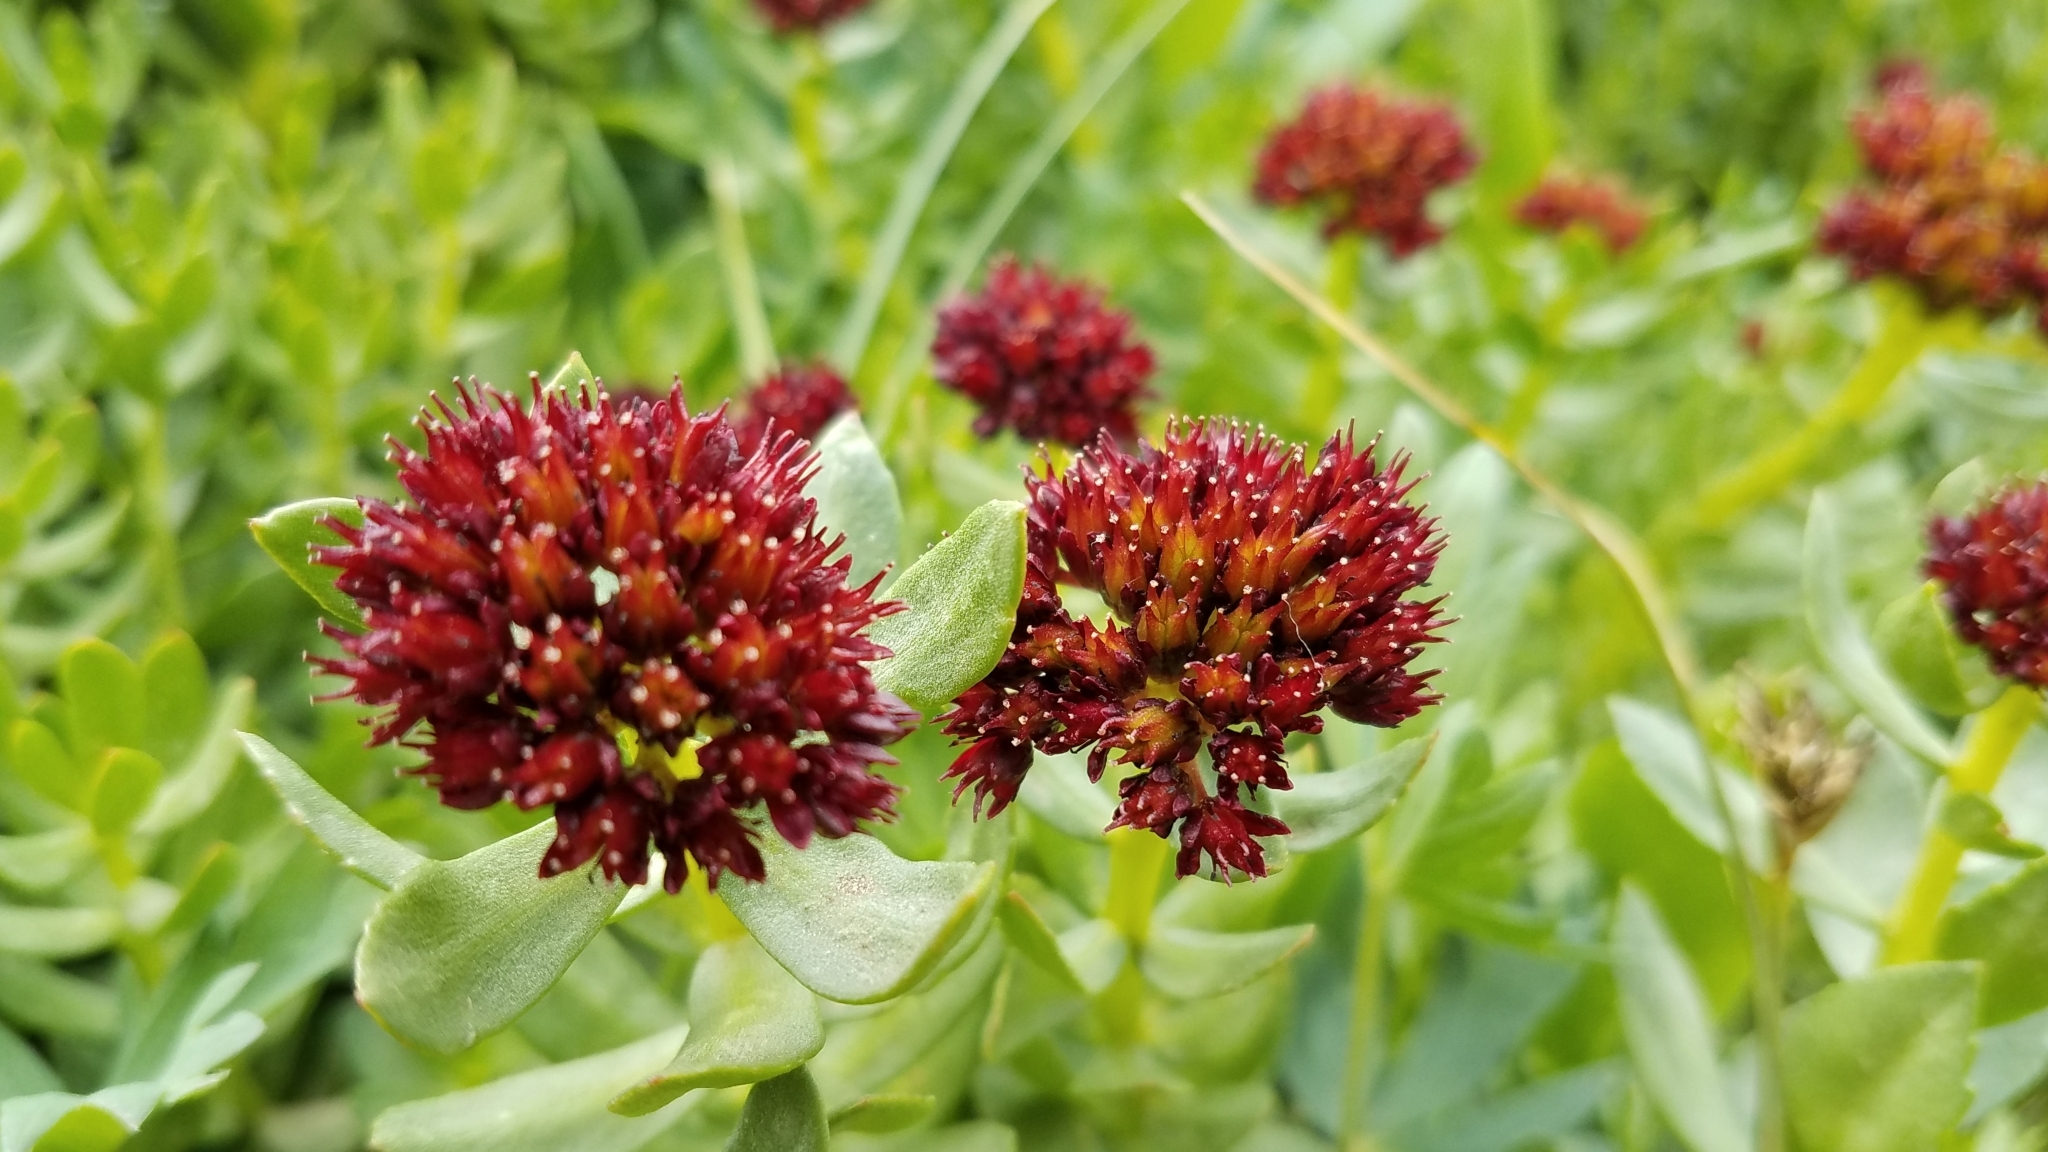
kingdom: Plantae
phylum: Tracheophyta
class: Magnoliopsida
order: Saxifragales
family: Crassulaceae
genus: Rhodiola
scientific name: Rhodiola integrifolia
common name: Western roseroot
